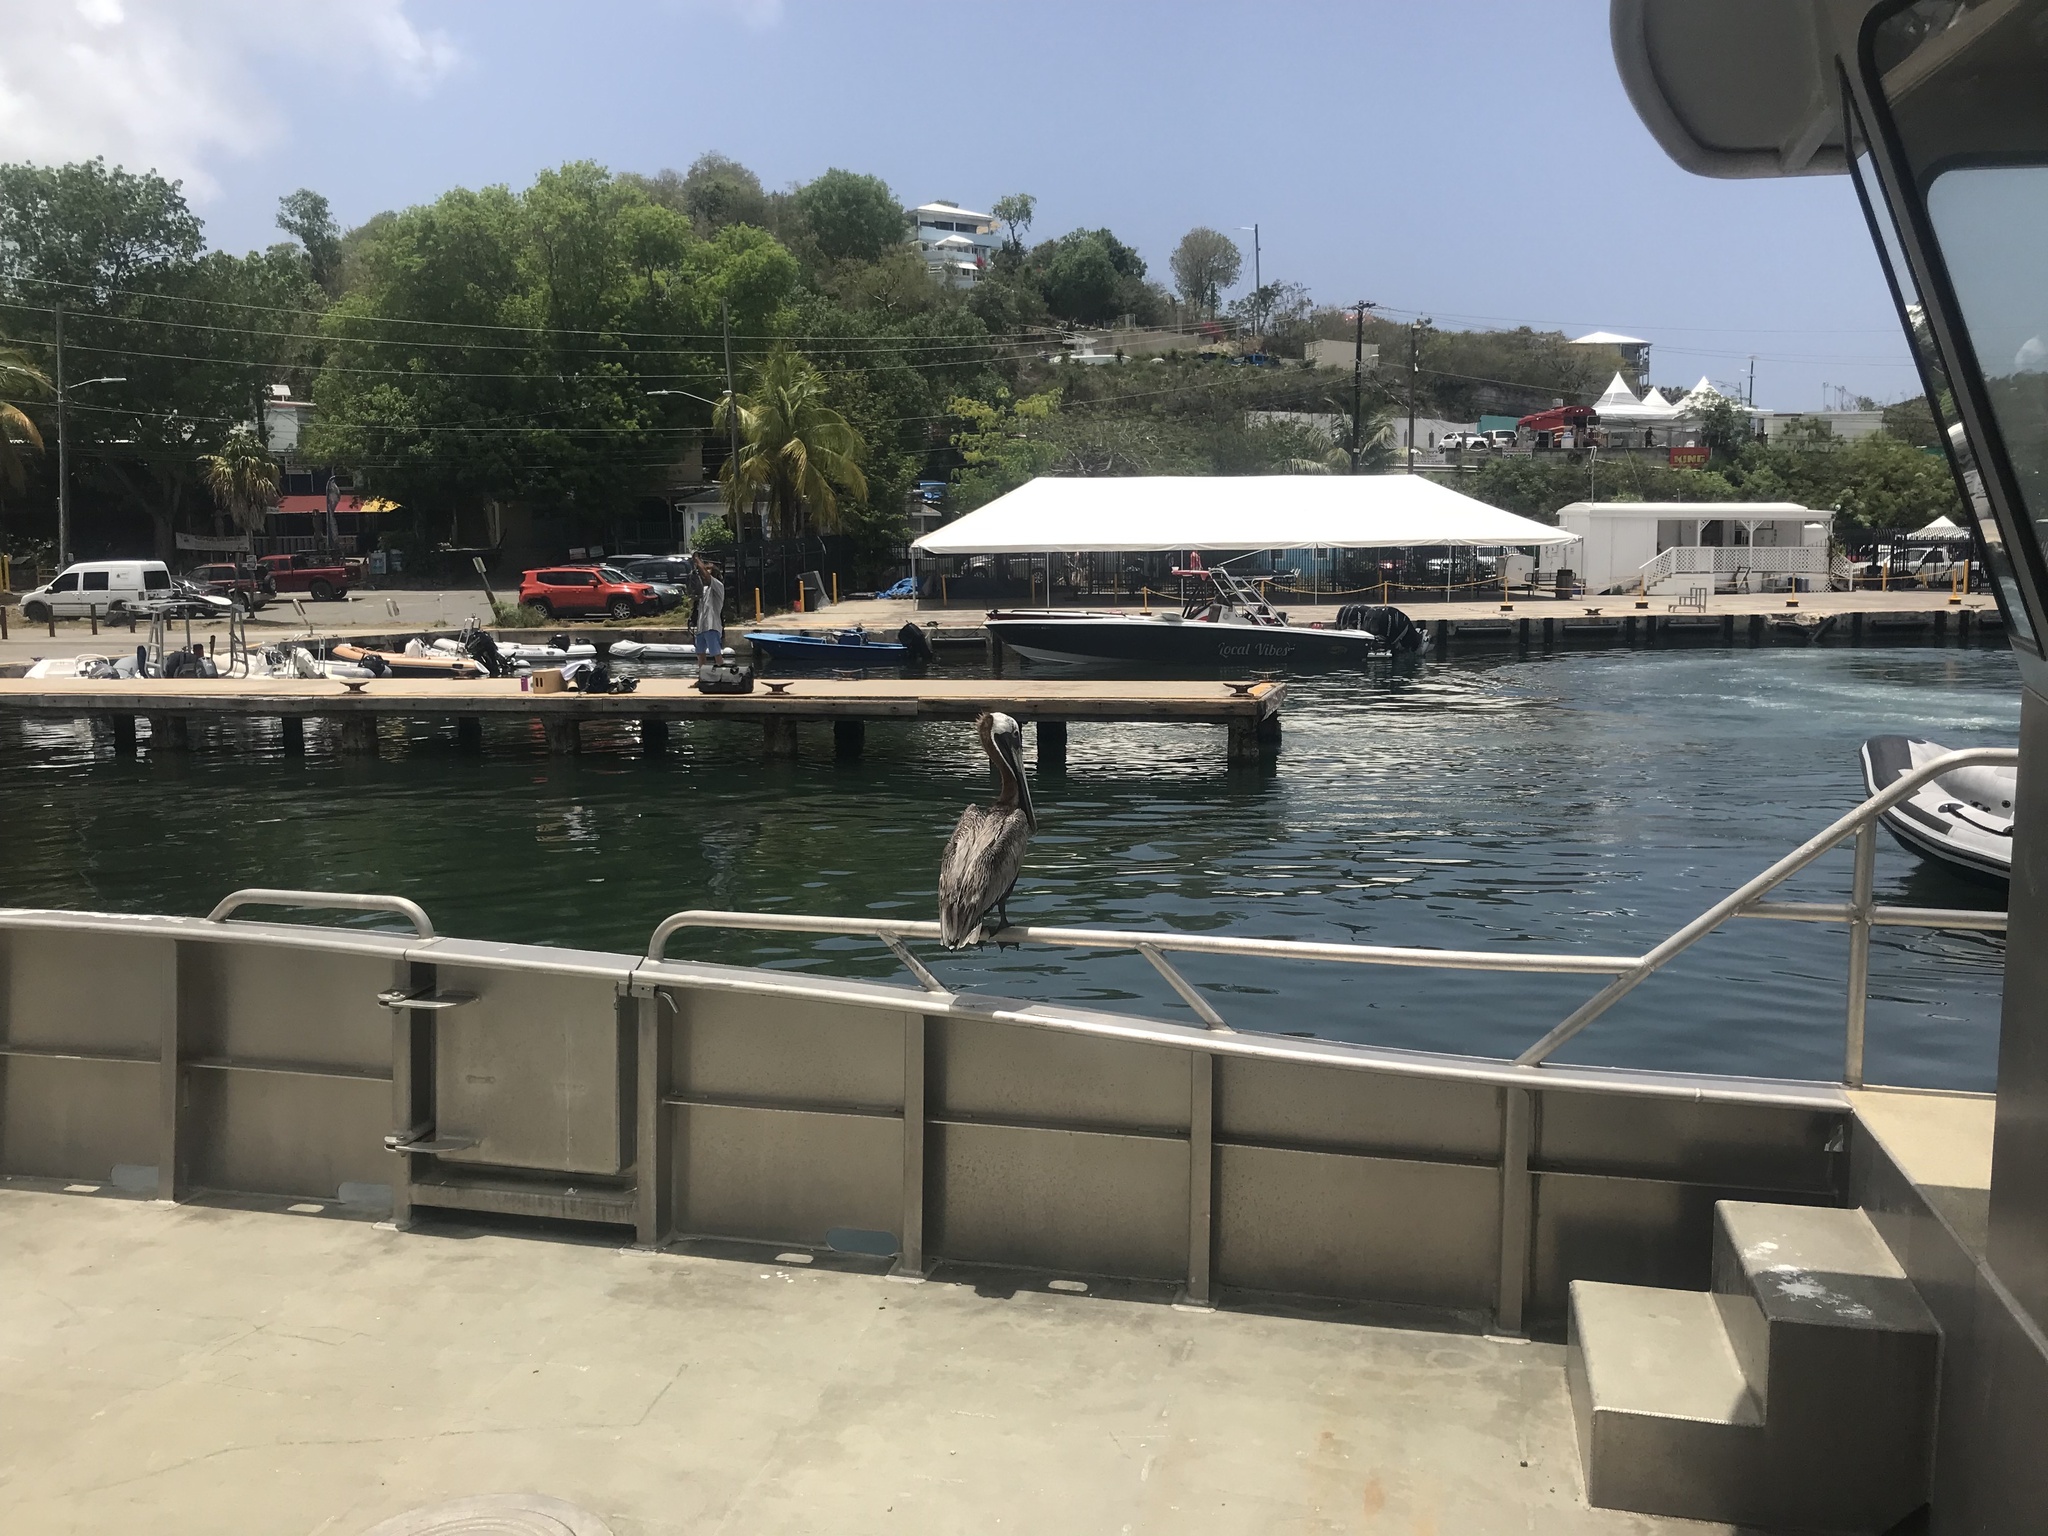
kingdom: Animalia
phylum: Chordata
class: Aves
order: Pelecaniformes
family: Pelecanidae
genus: Pelecanus
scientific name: Pelecanus occidentalis
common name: Brown pelican
